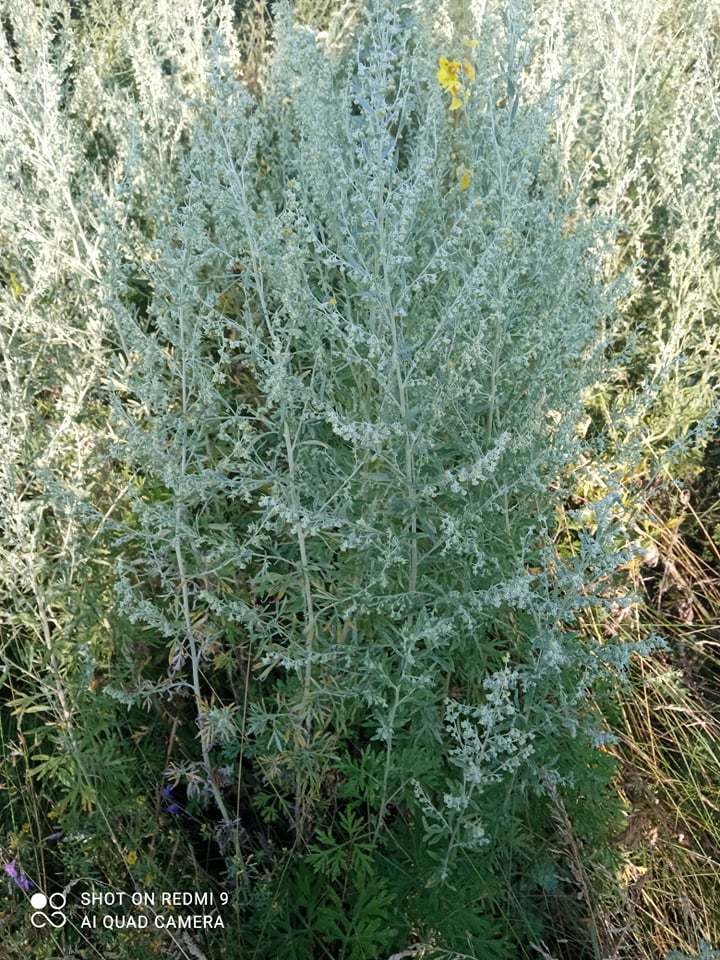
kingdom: Plantae
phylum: Tracheophyta
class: Magnoliopsida
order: Asterales
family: Asteraceae
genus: Artemisia
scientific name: Artemisia absinthium
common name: Wormwood
